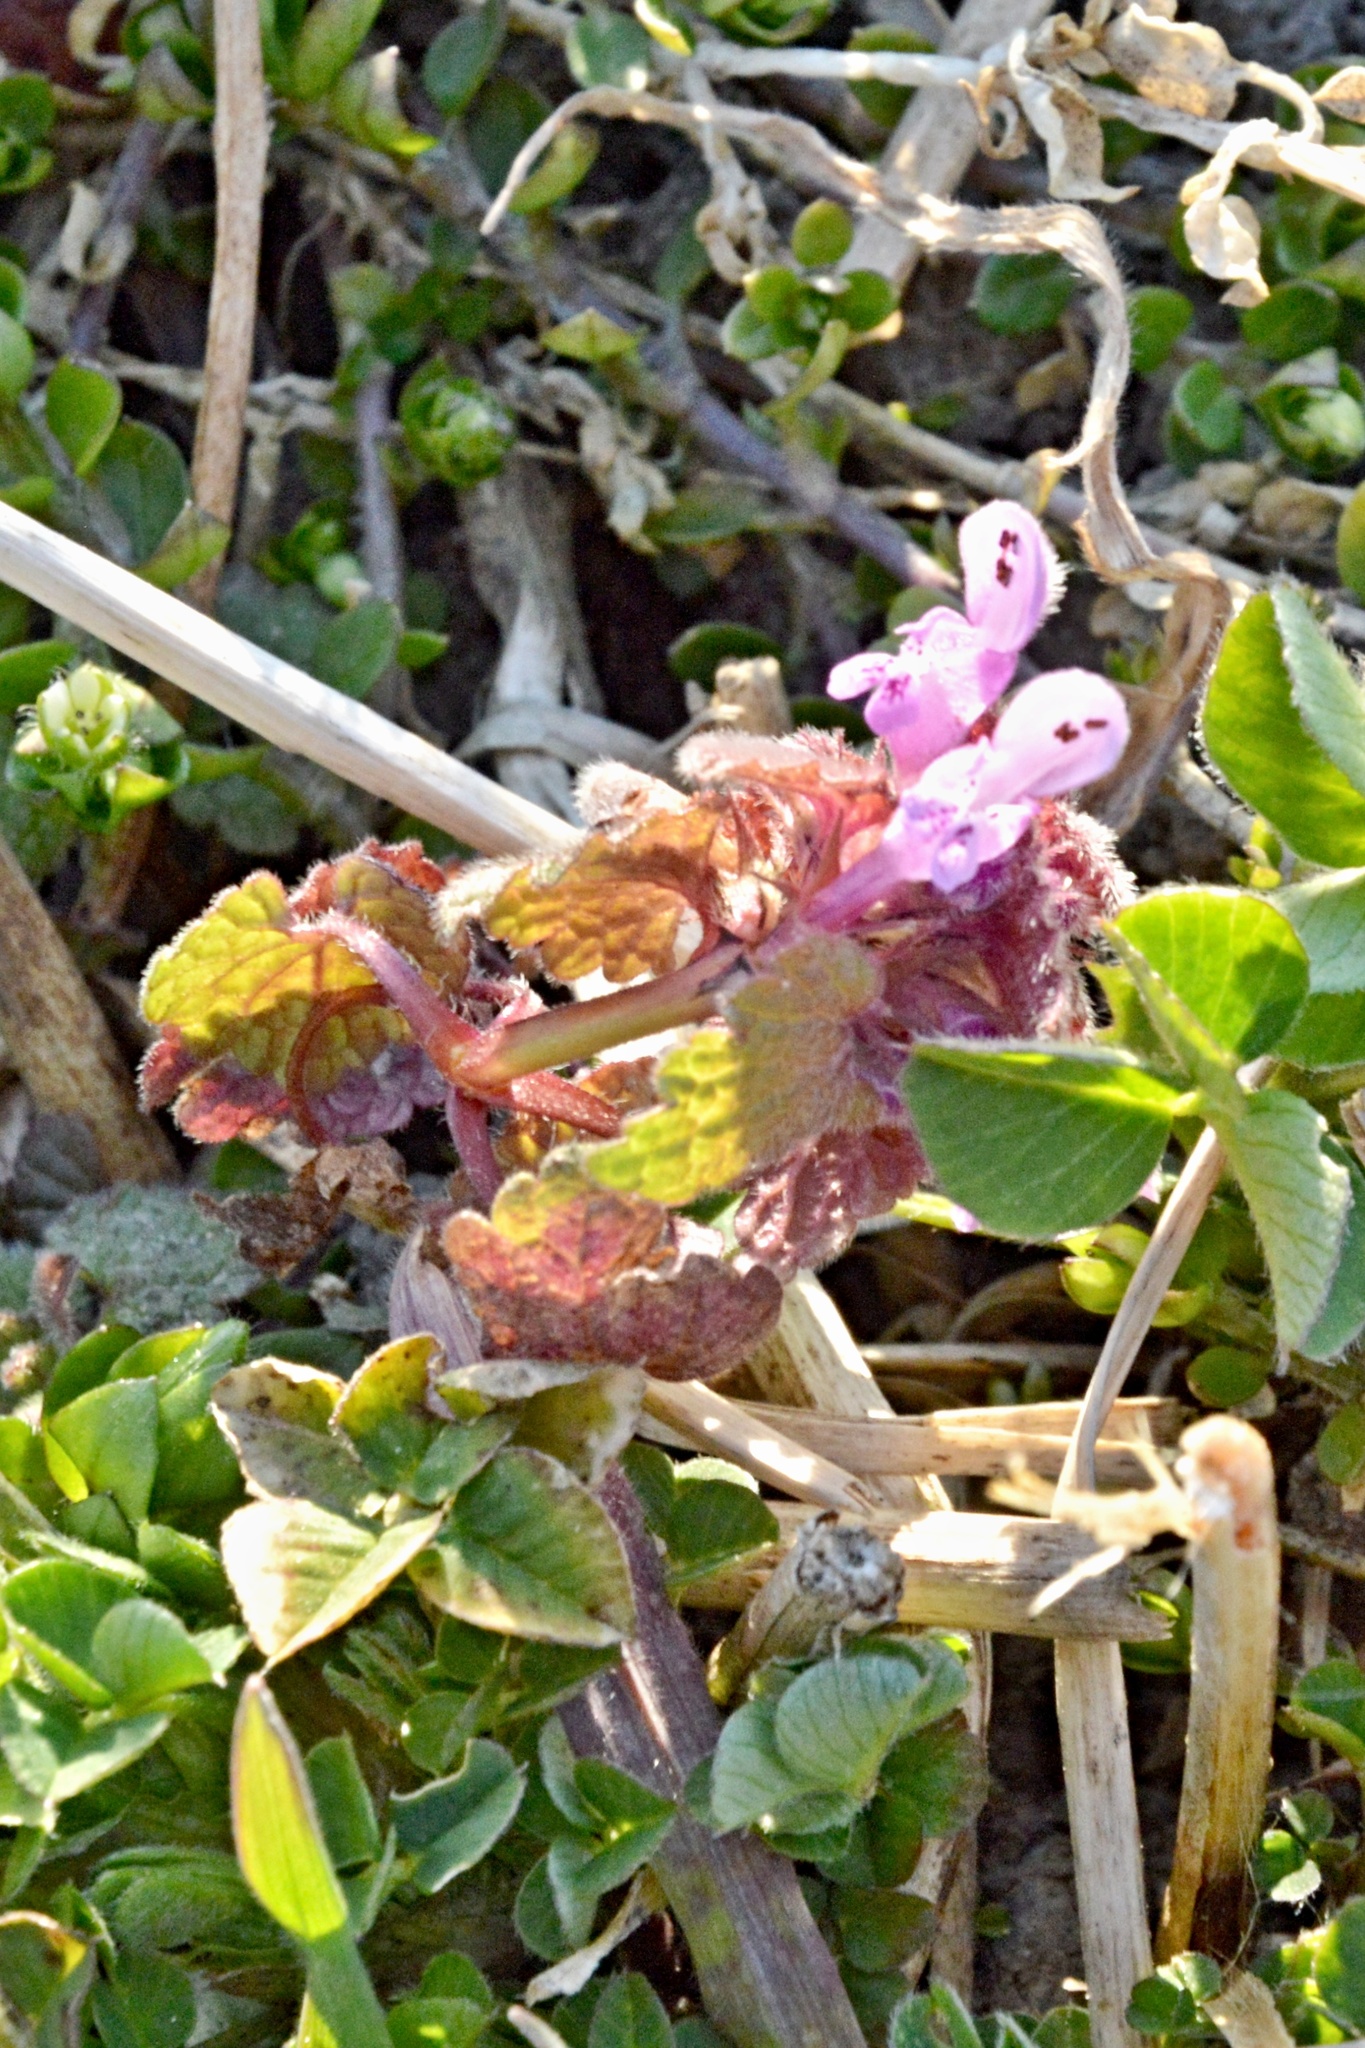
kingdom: Plantae
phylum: Tracheophyta
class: Magnoliopsida
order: Lamiales
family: Lamiaceae
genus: Lamium
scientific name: Lamium purpureum
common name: Red dead-nettle
